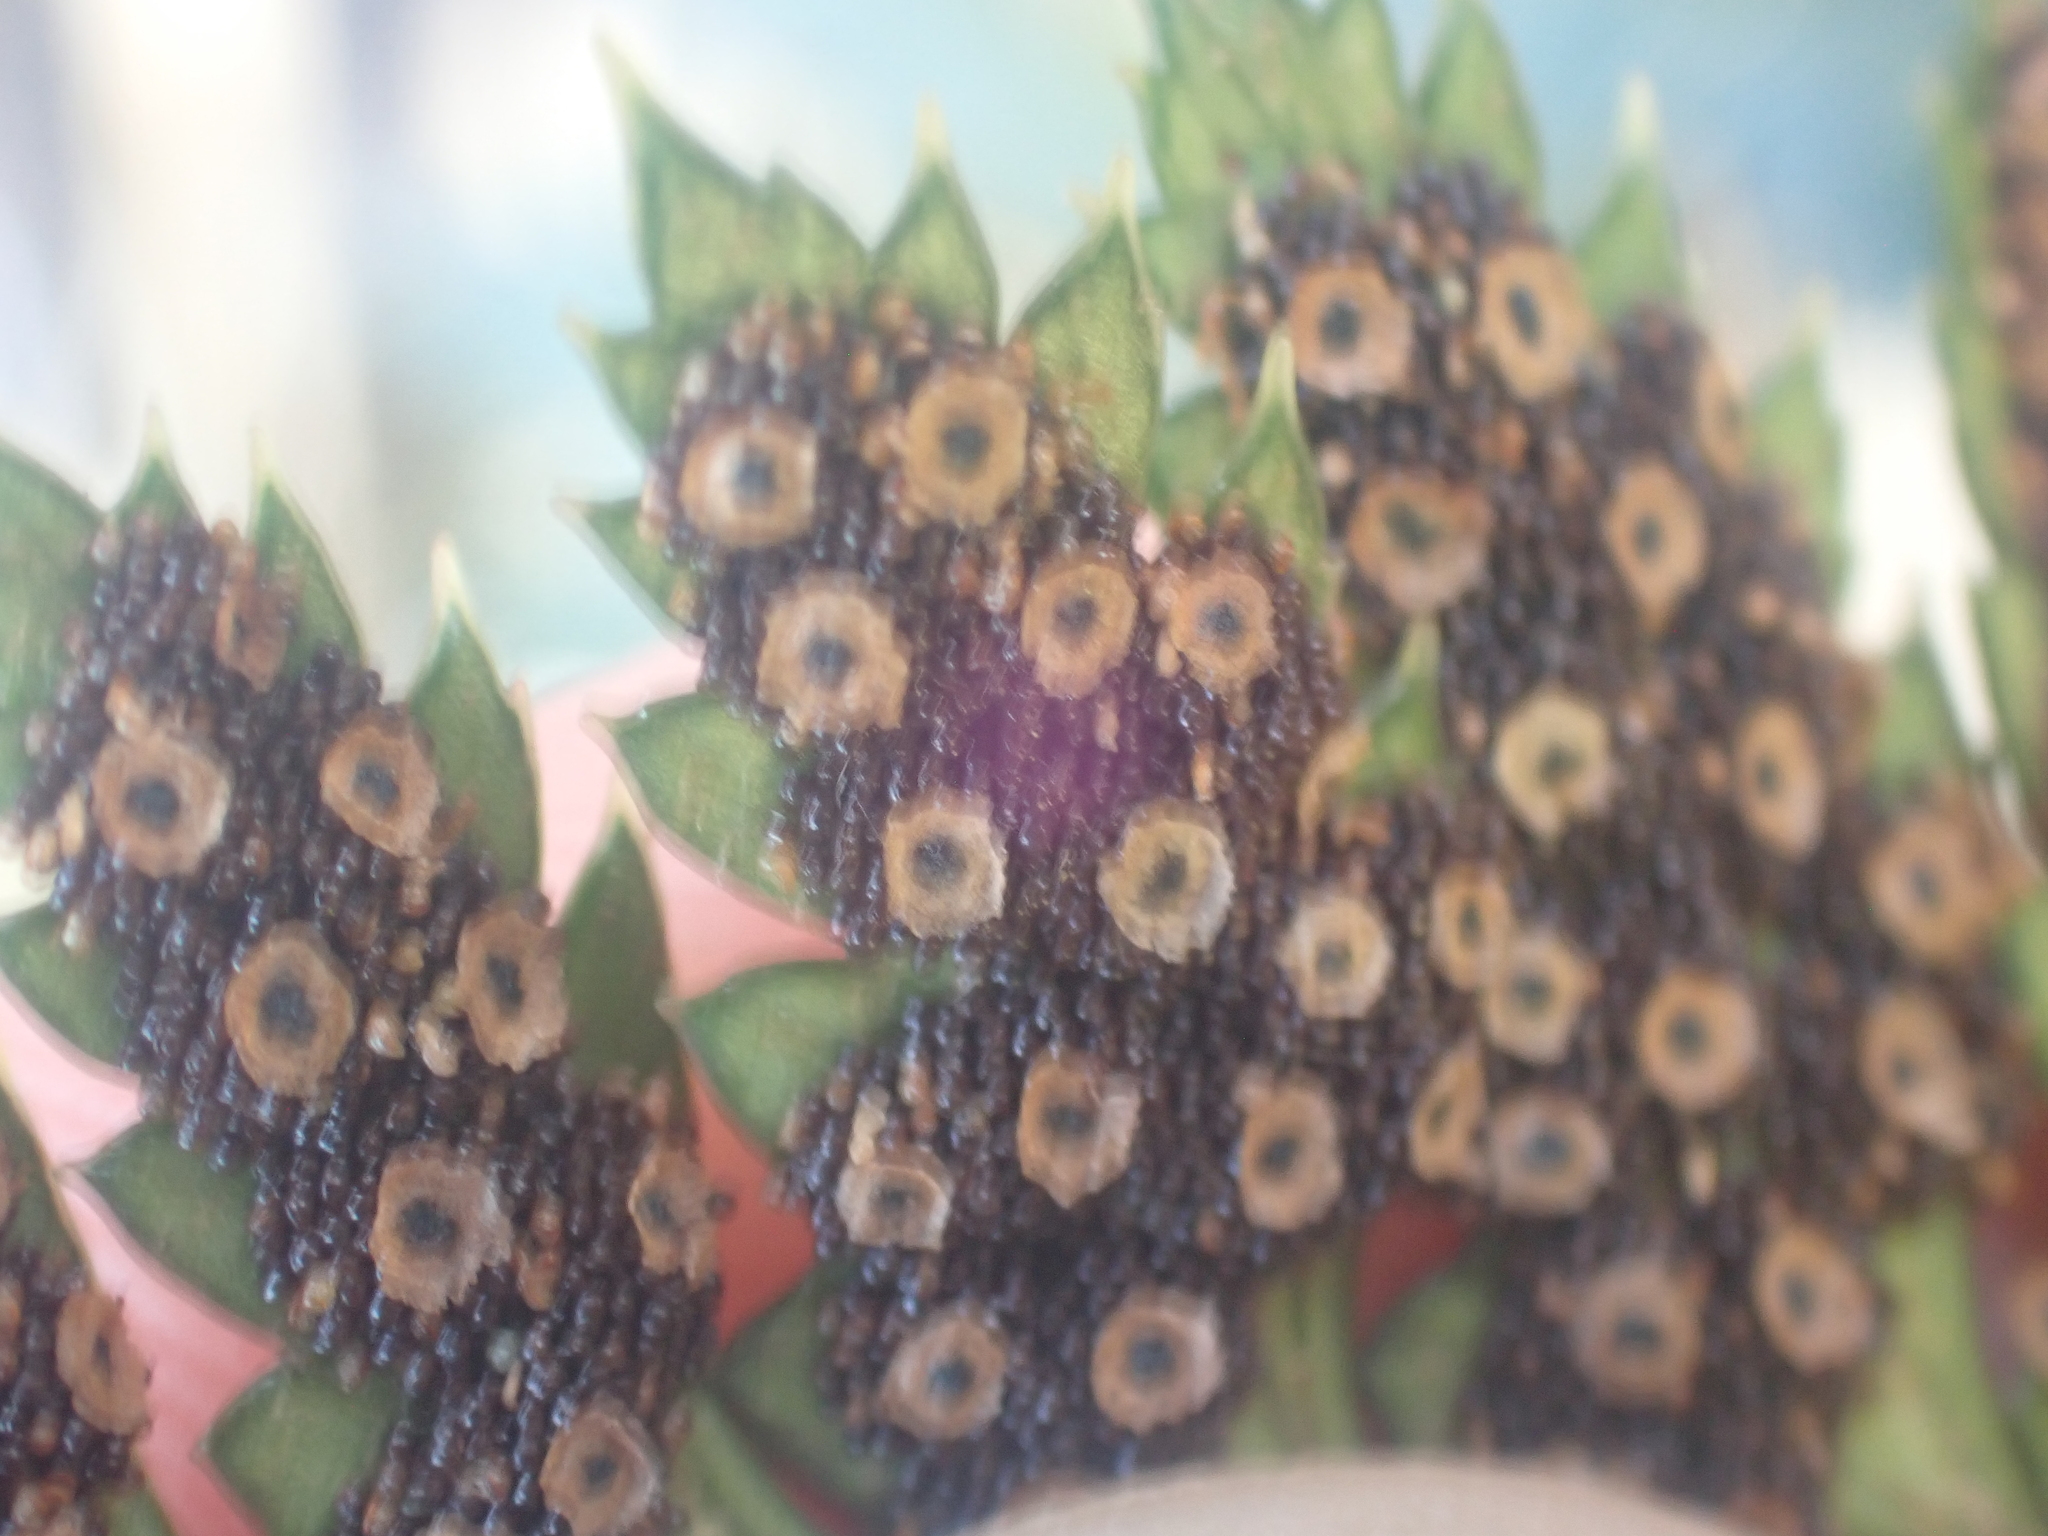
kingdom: Plantae
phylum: Tracheophyta
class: Polypodiopsida
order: Polypodiales
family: Dryopteridaceae
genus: Polystichum
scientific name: Polystichum oculatum
